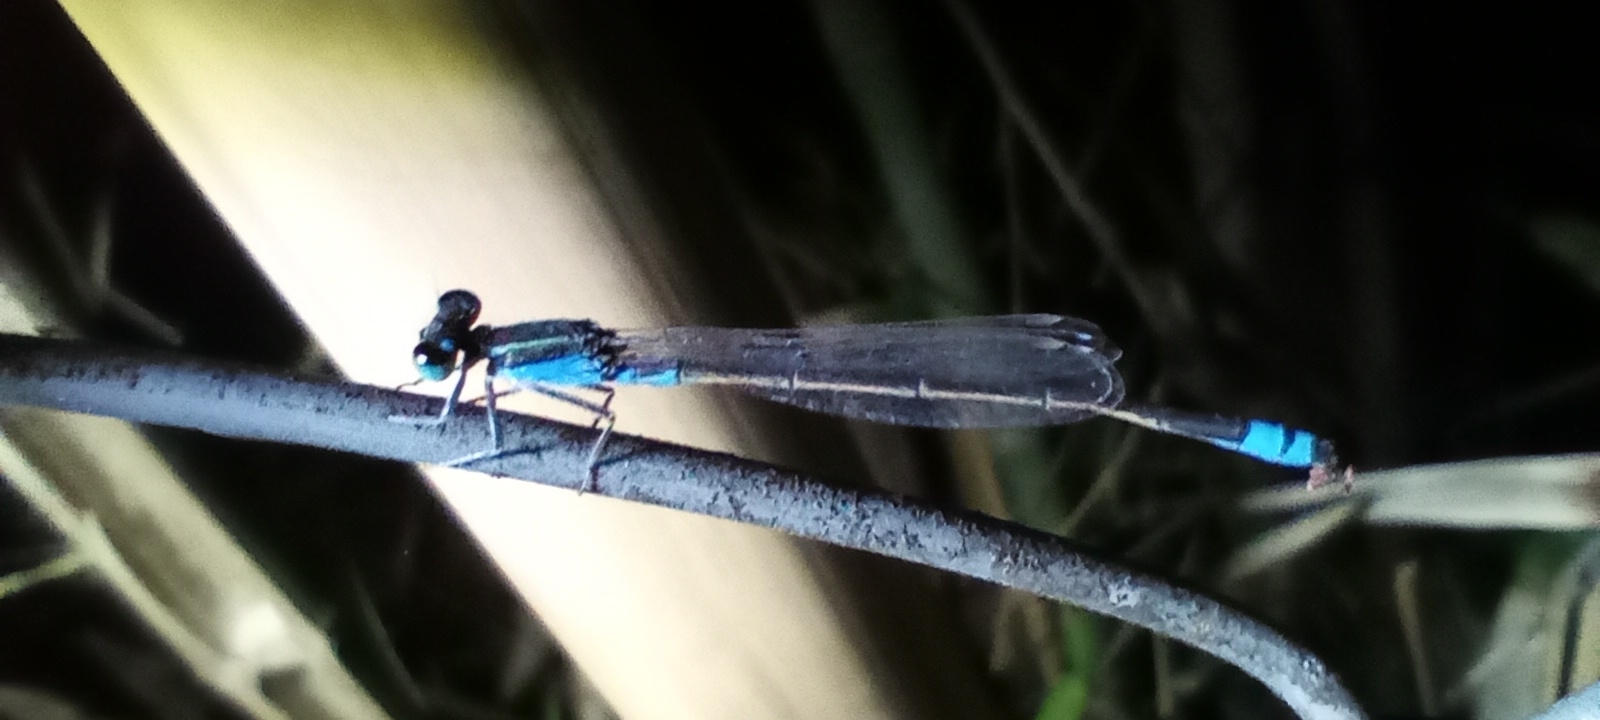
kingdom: Animalia
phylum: Arthropoda
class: Insecta
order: Odonata
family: Coenagrionidae
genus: Ischnura
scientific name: Ischnura fluviatilis
